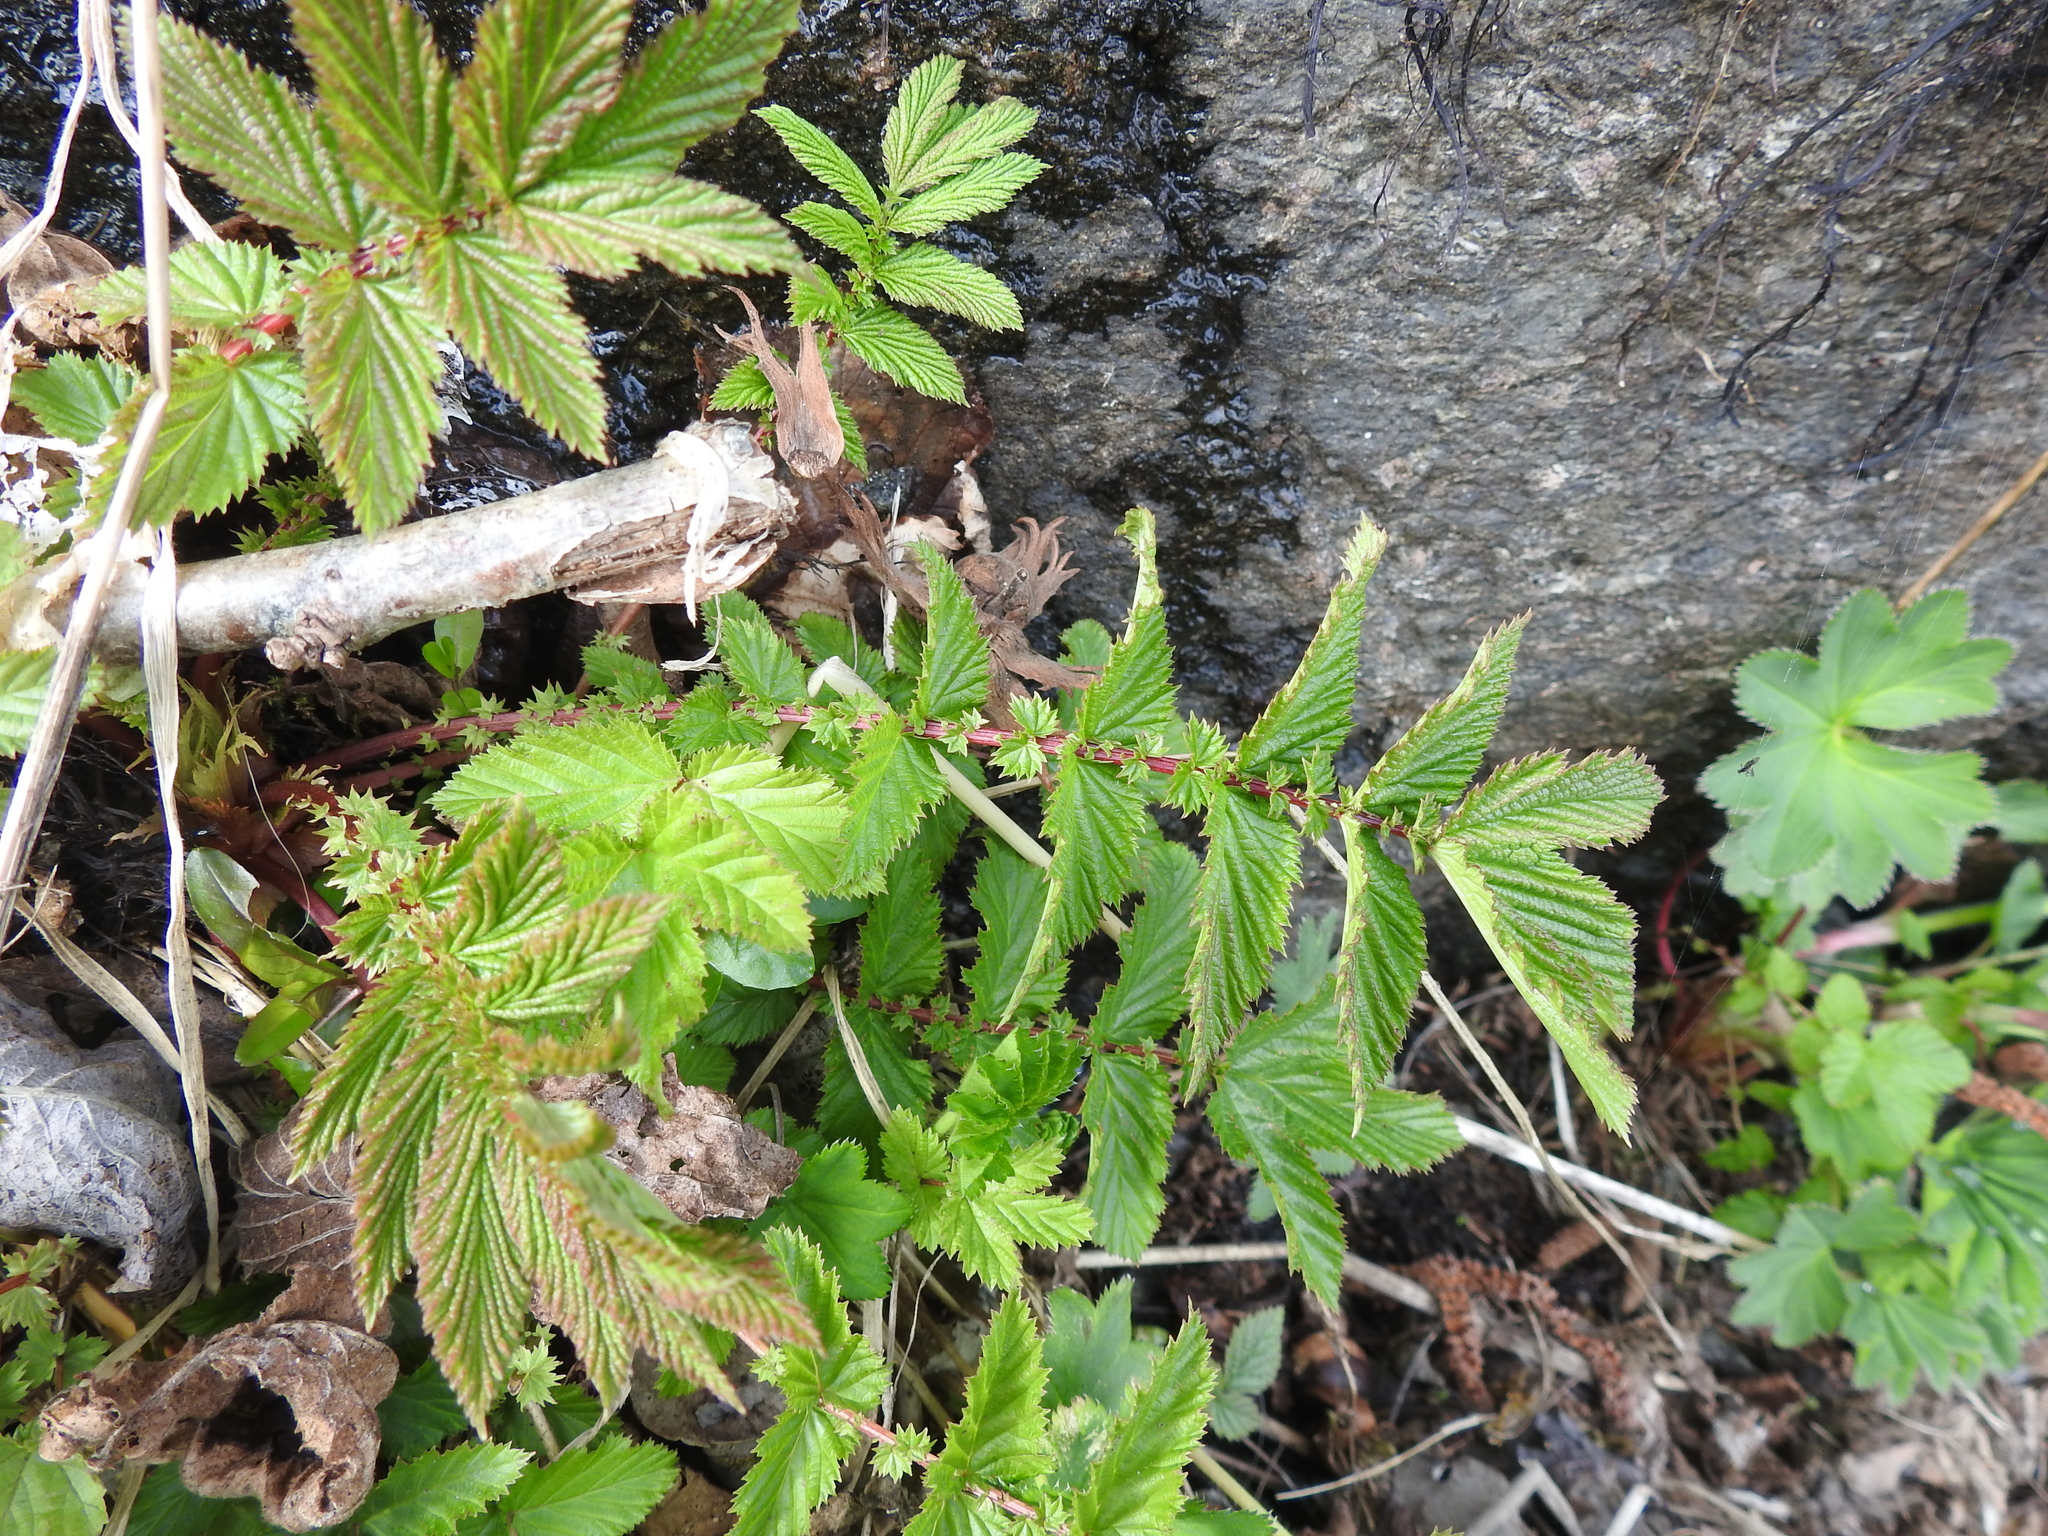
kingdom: Plantae
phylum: Tracheophyta
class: Magnoliopsida
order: Rosales
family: Rosaceae
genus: Filipendula
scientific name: Filipendula ulmaria
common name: Meadowsweet
